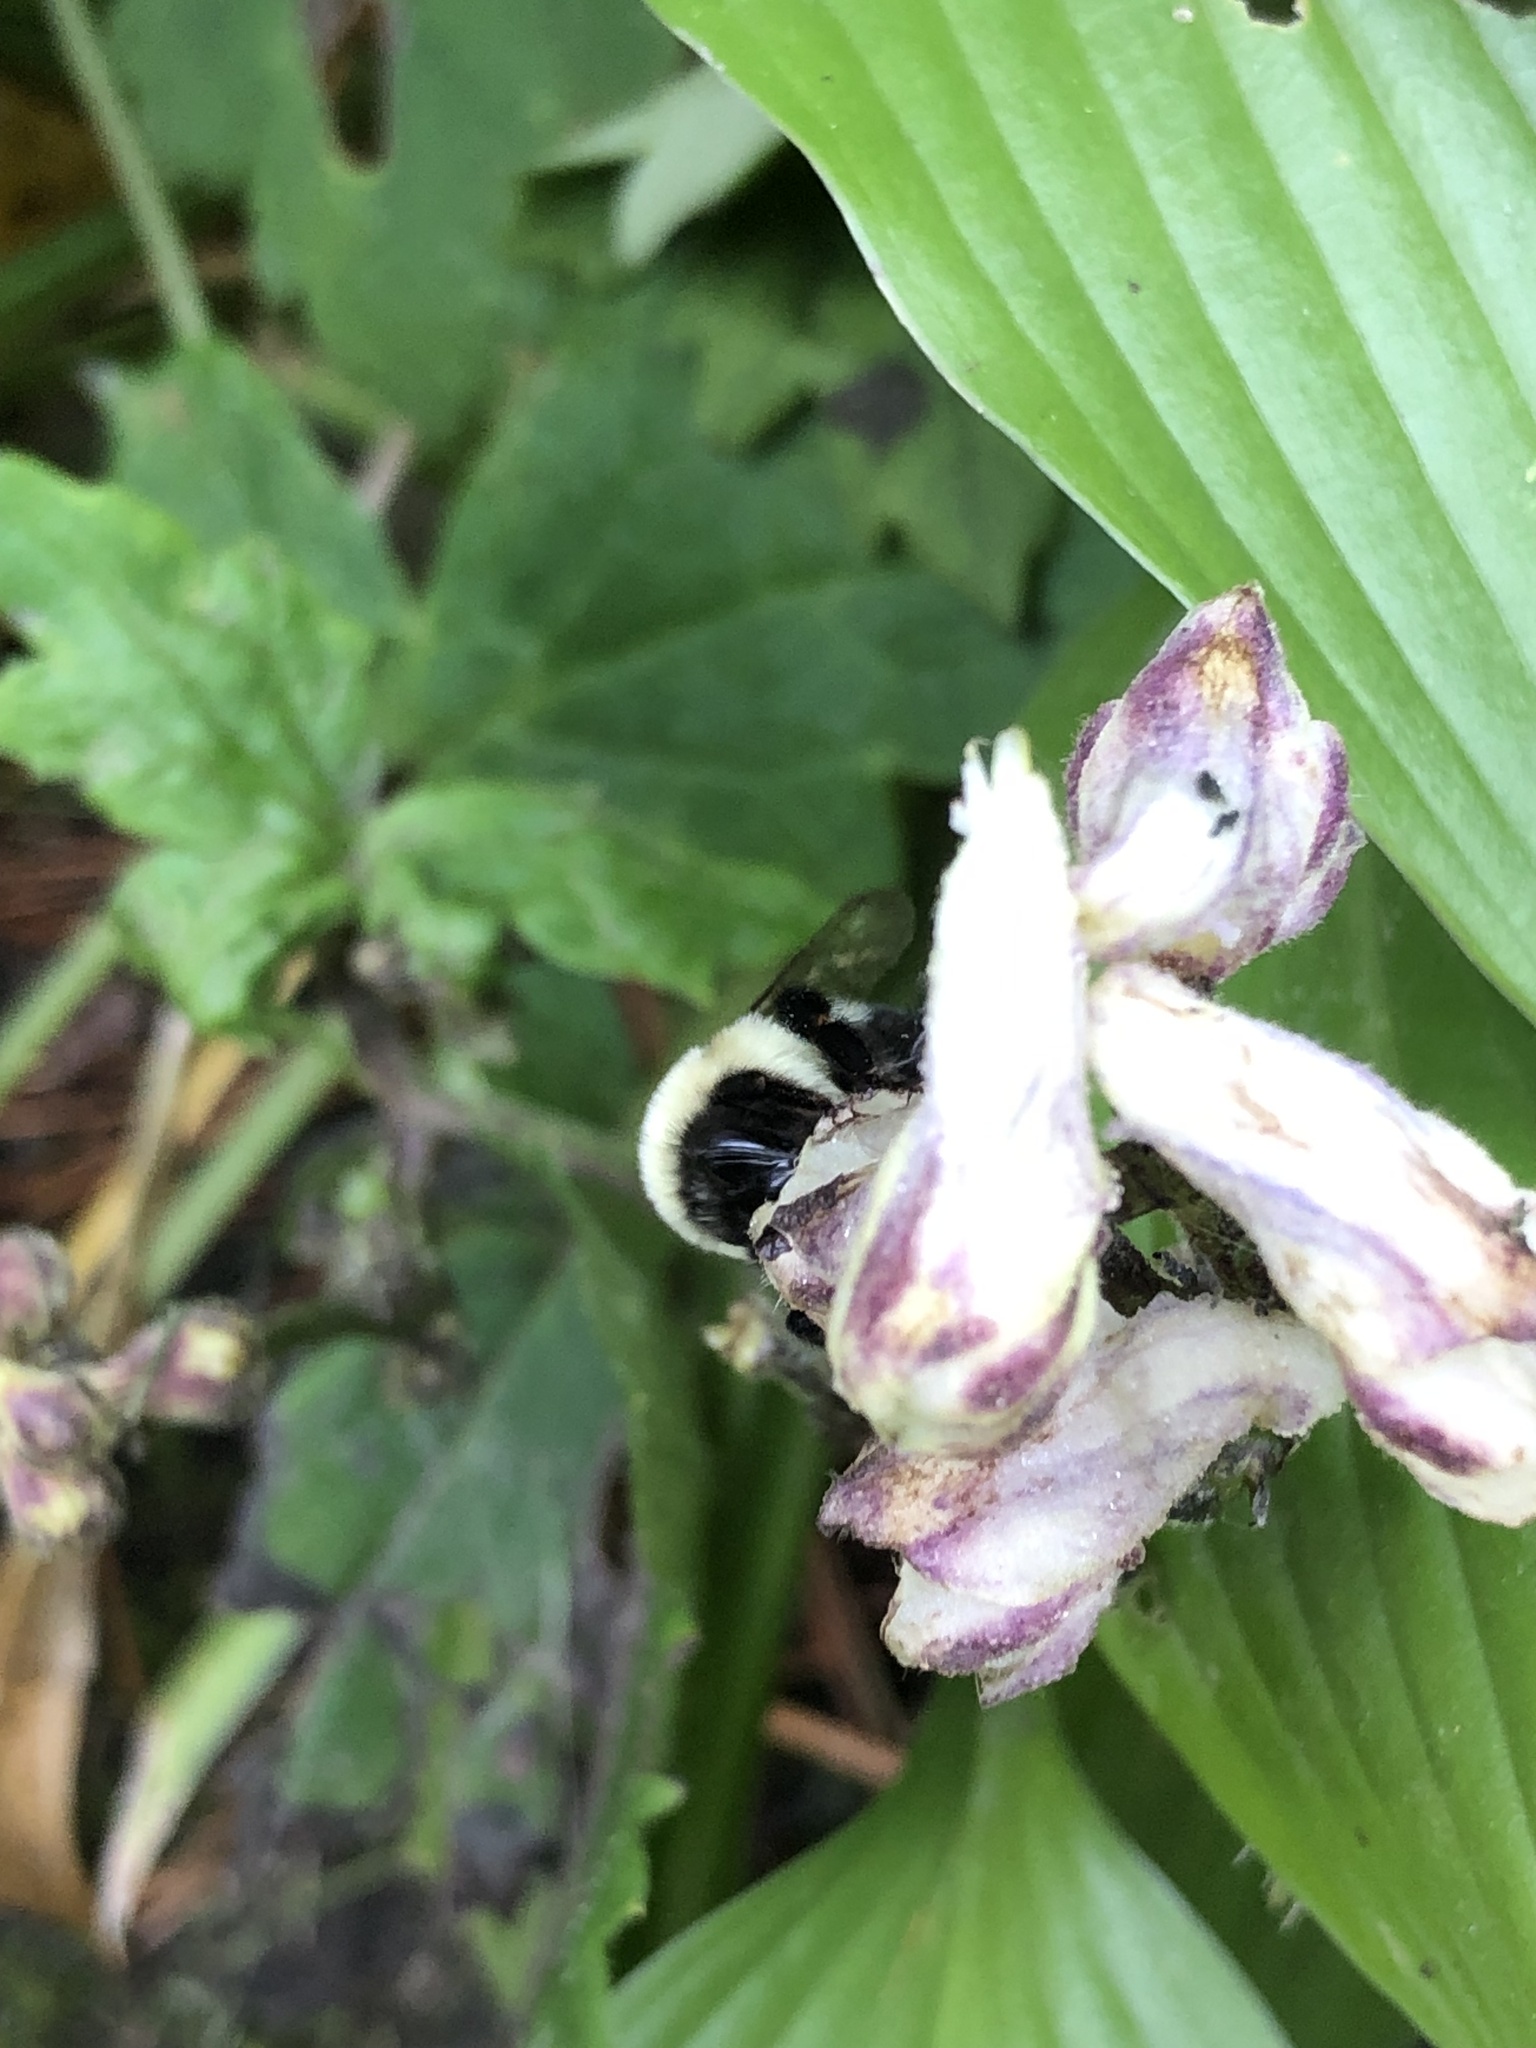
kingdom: Animalia
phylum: Arthropoda
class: Insecta
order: Hymenoptera
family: Apidae
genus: Bombus
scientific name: Bombus impatiens
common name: Common eastern bumble bee
